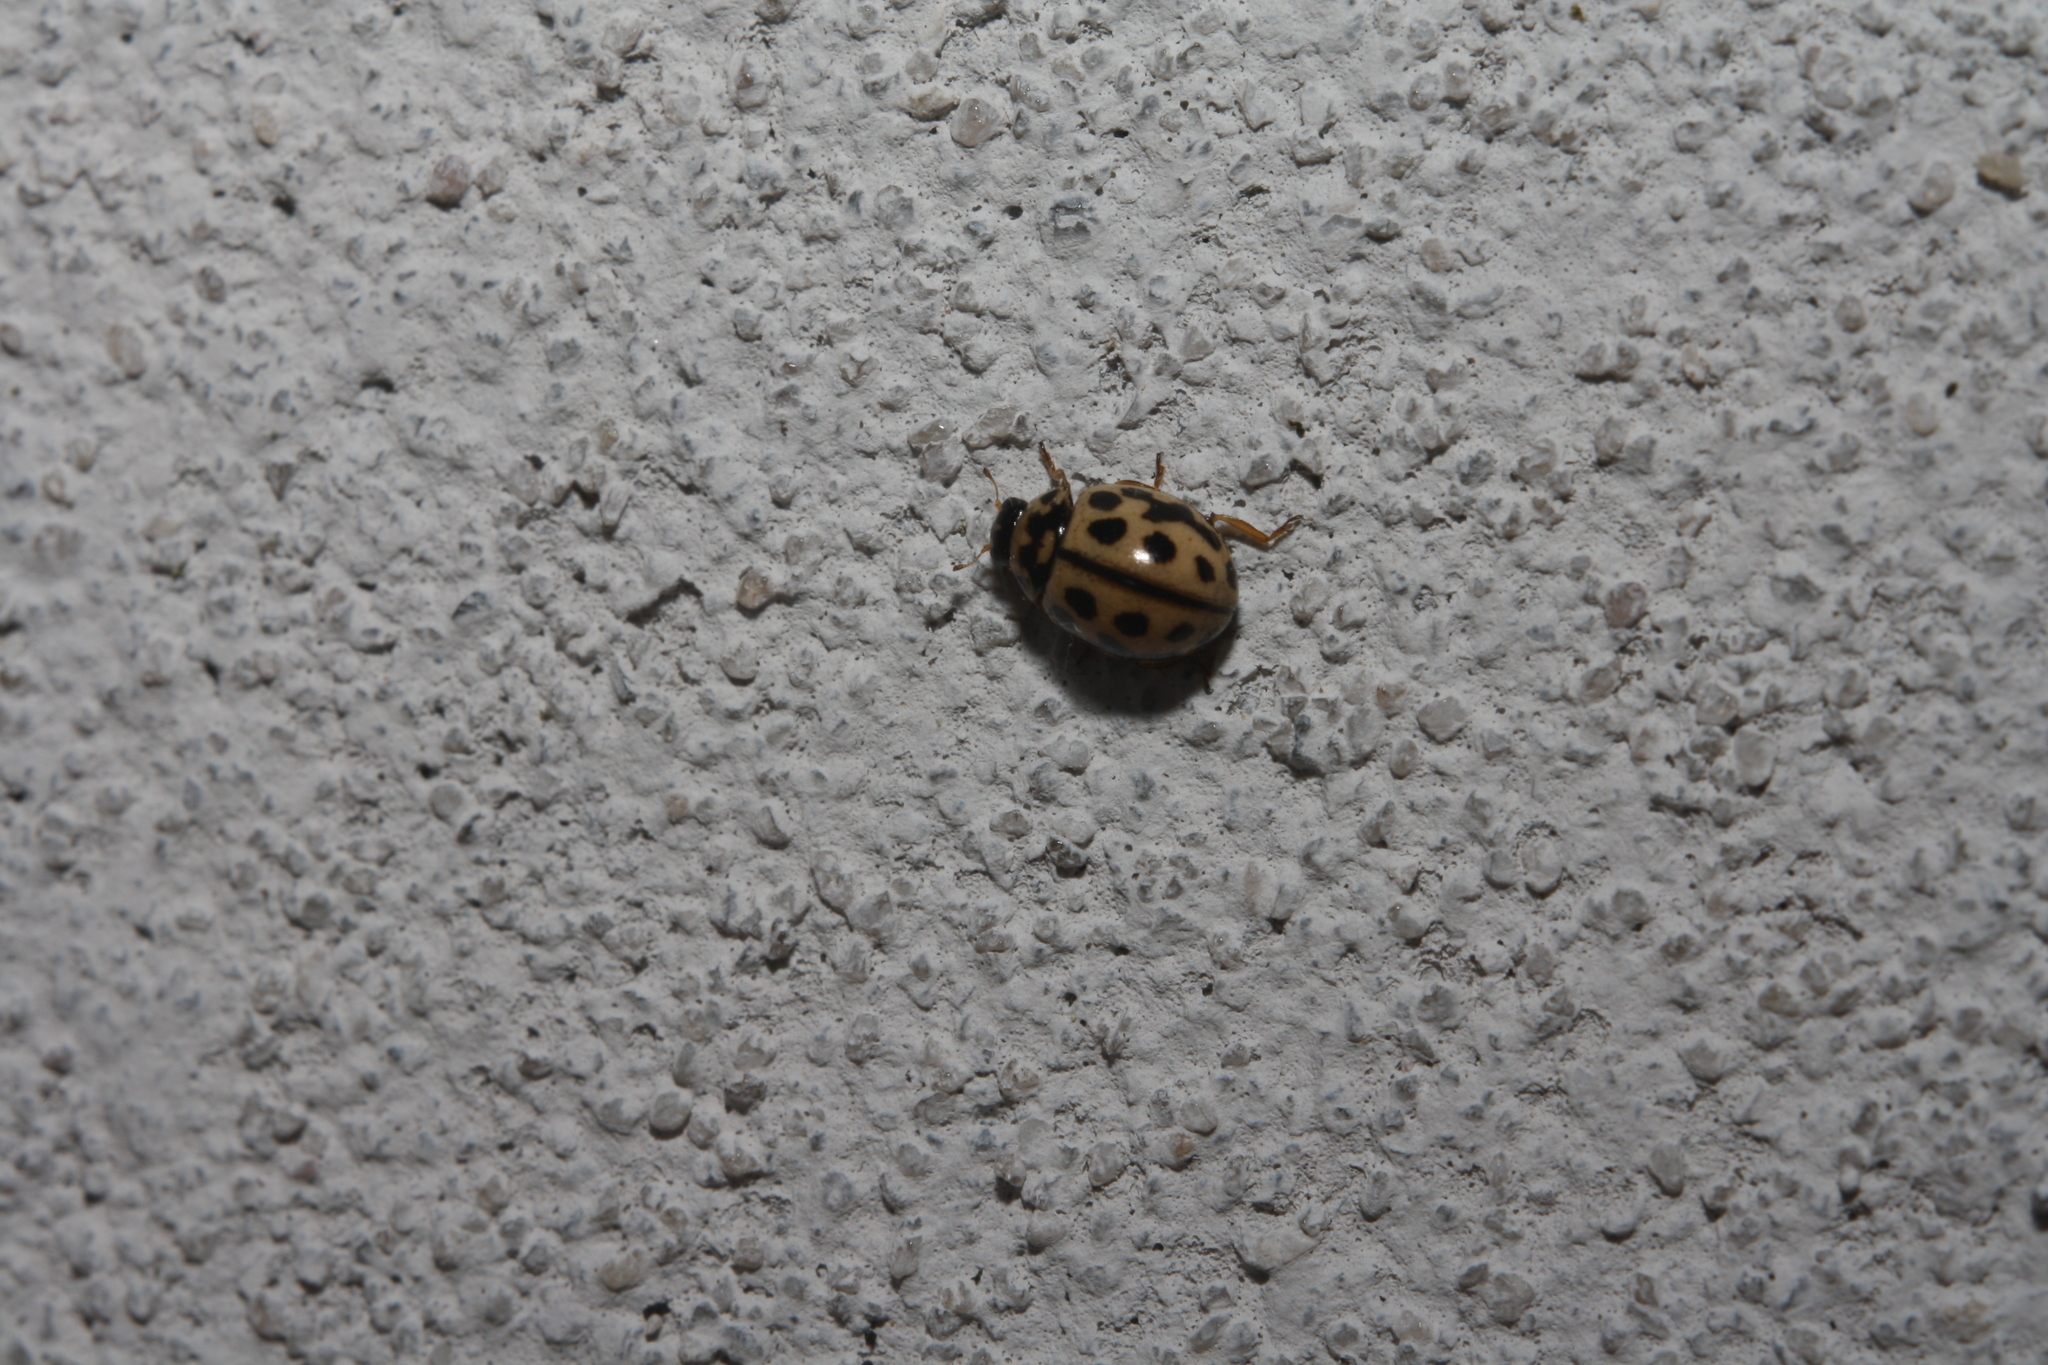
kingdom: Animalia
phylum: Arthropoda
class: Insecta
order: Coleoptera
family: Coccinellidae
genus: Tytthaspis
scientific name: Tytthaspis sedecimpunctata
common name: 16-spot ladybird
